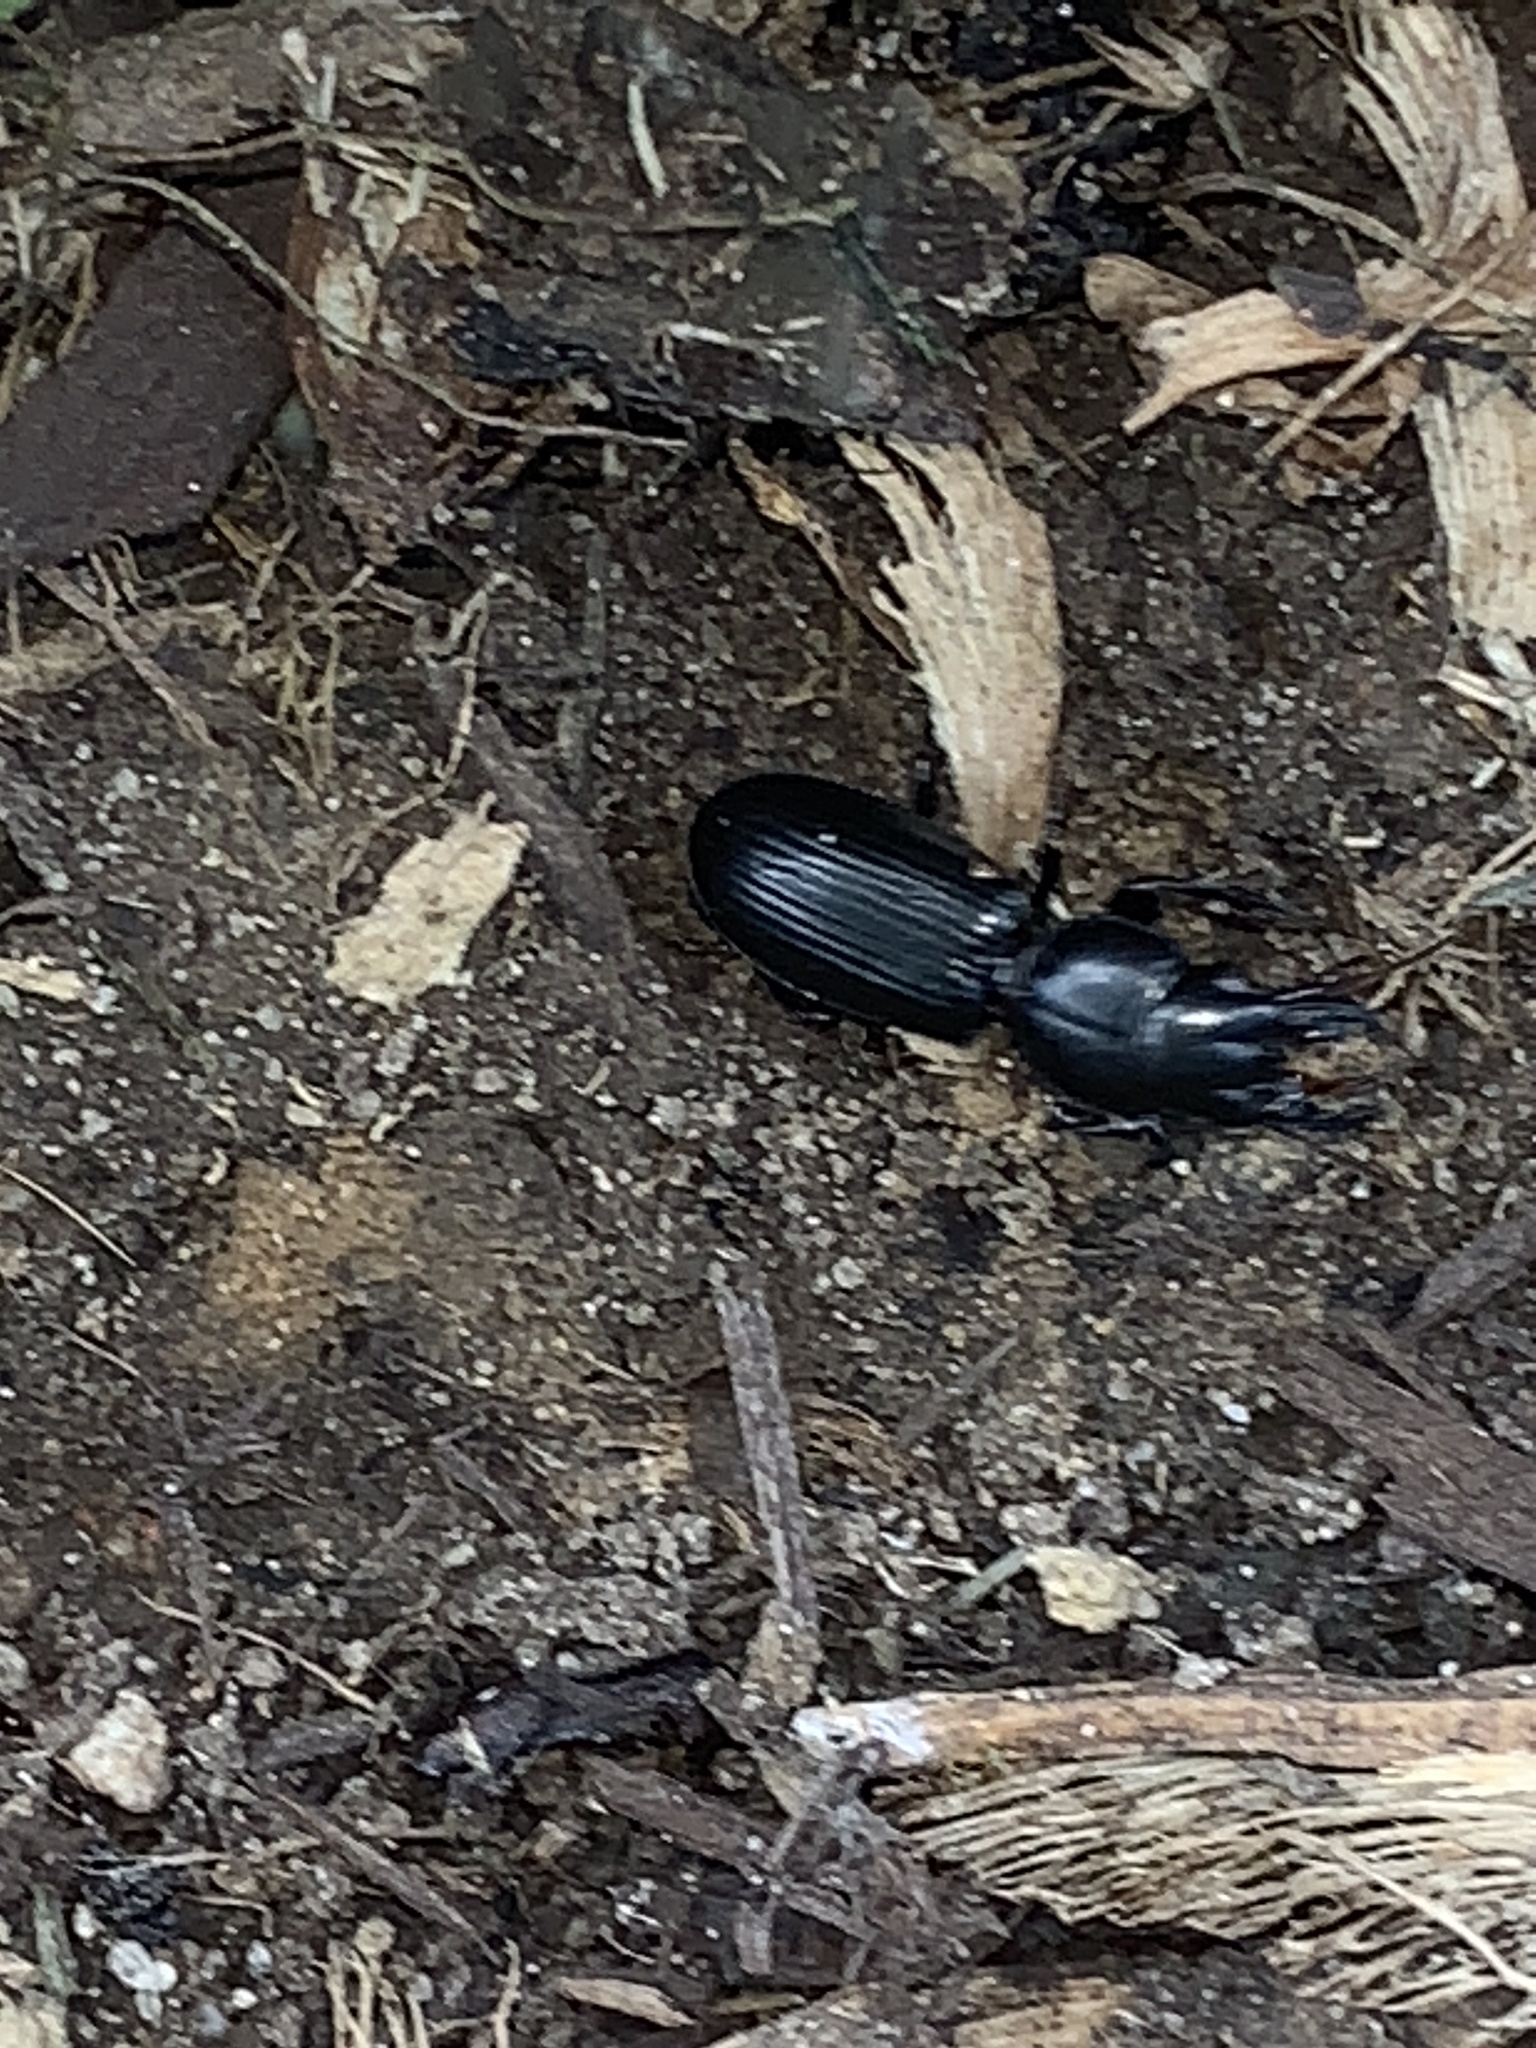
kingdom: Animalia
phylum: Arthropoda
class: Insecta
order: Coleoptera
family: Carabidae
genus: Scarites
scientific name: Scarites subterraneus
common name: Big-headed ground beetle
